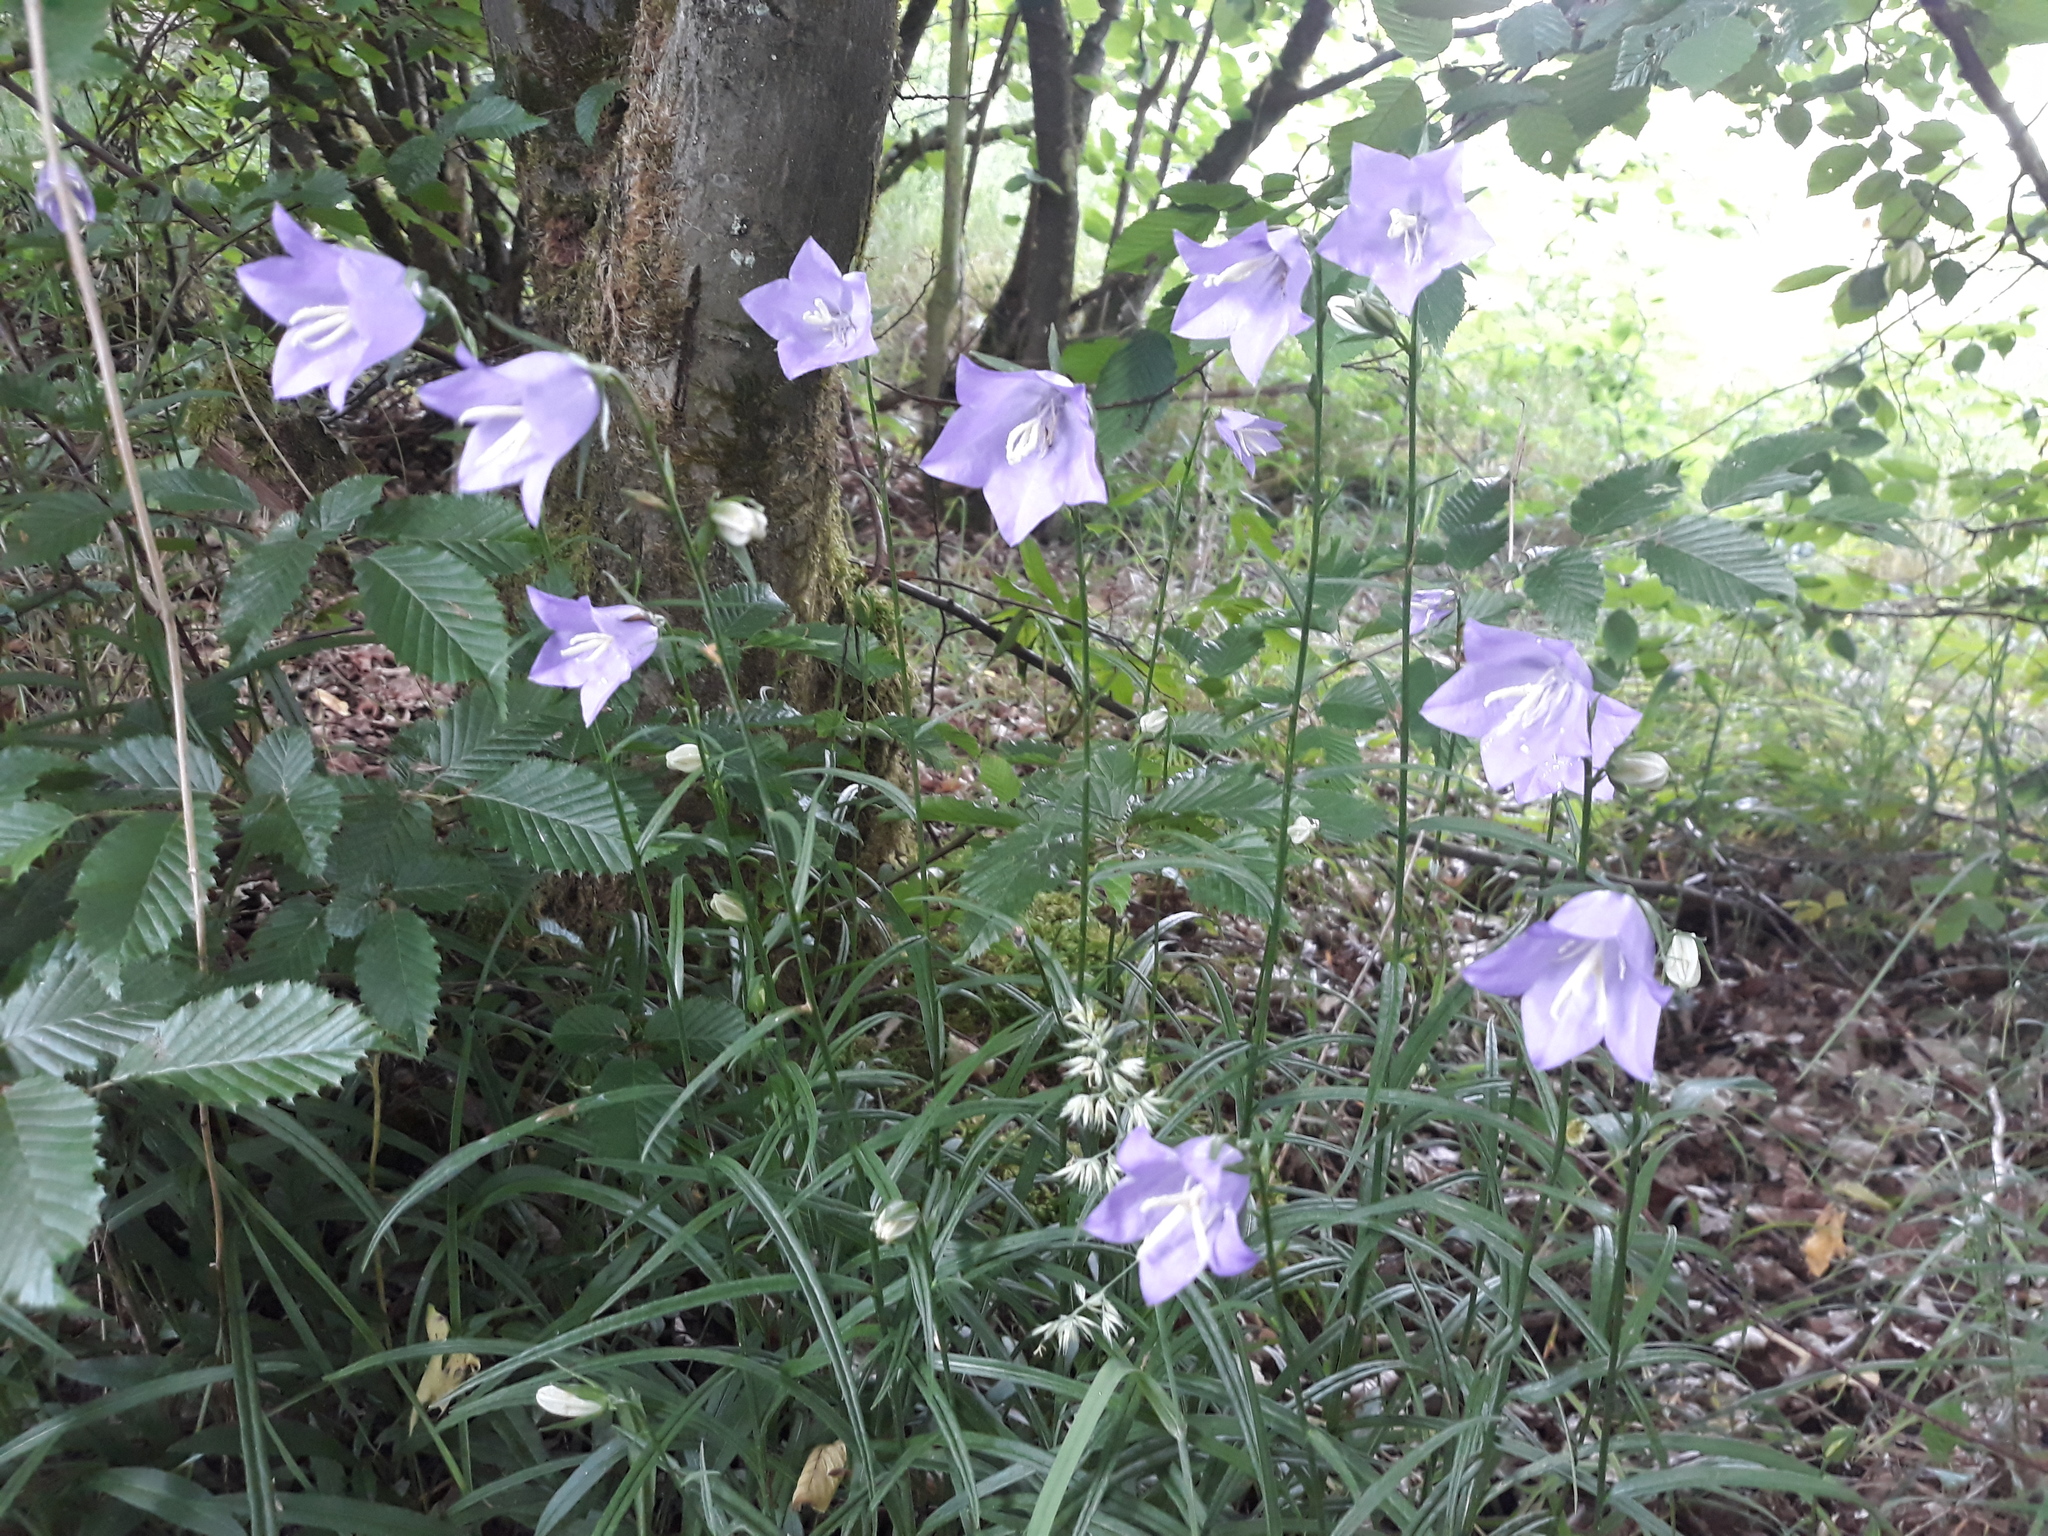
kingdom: Plantae
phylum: Tracheophyta
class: Magnoliopsida
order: Asterales
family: Campanulaceae
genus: Campanula
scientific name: Campanula persicifolia
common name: Peach-leaved bellflower
